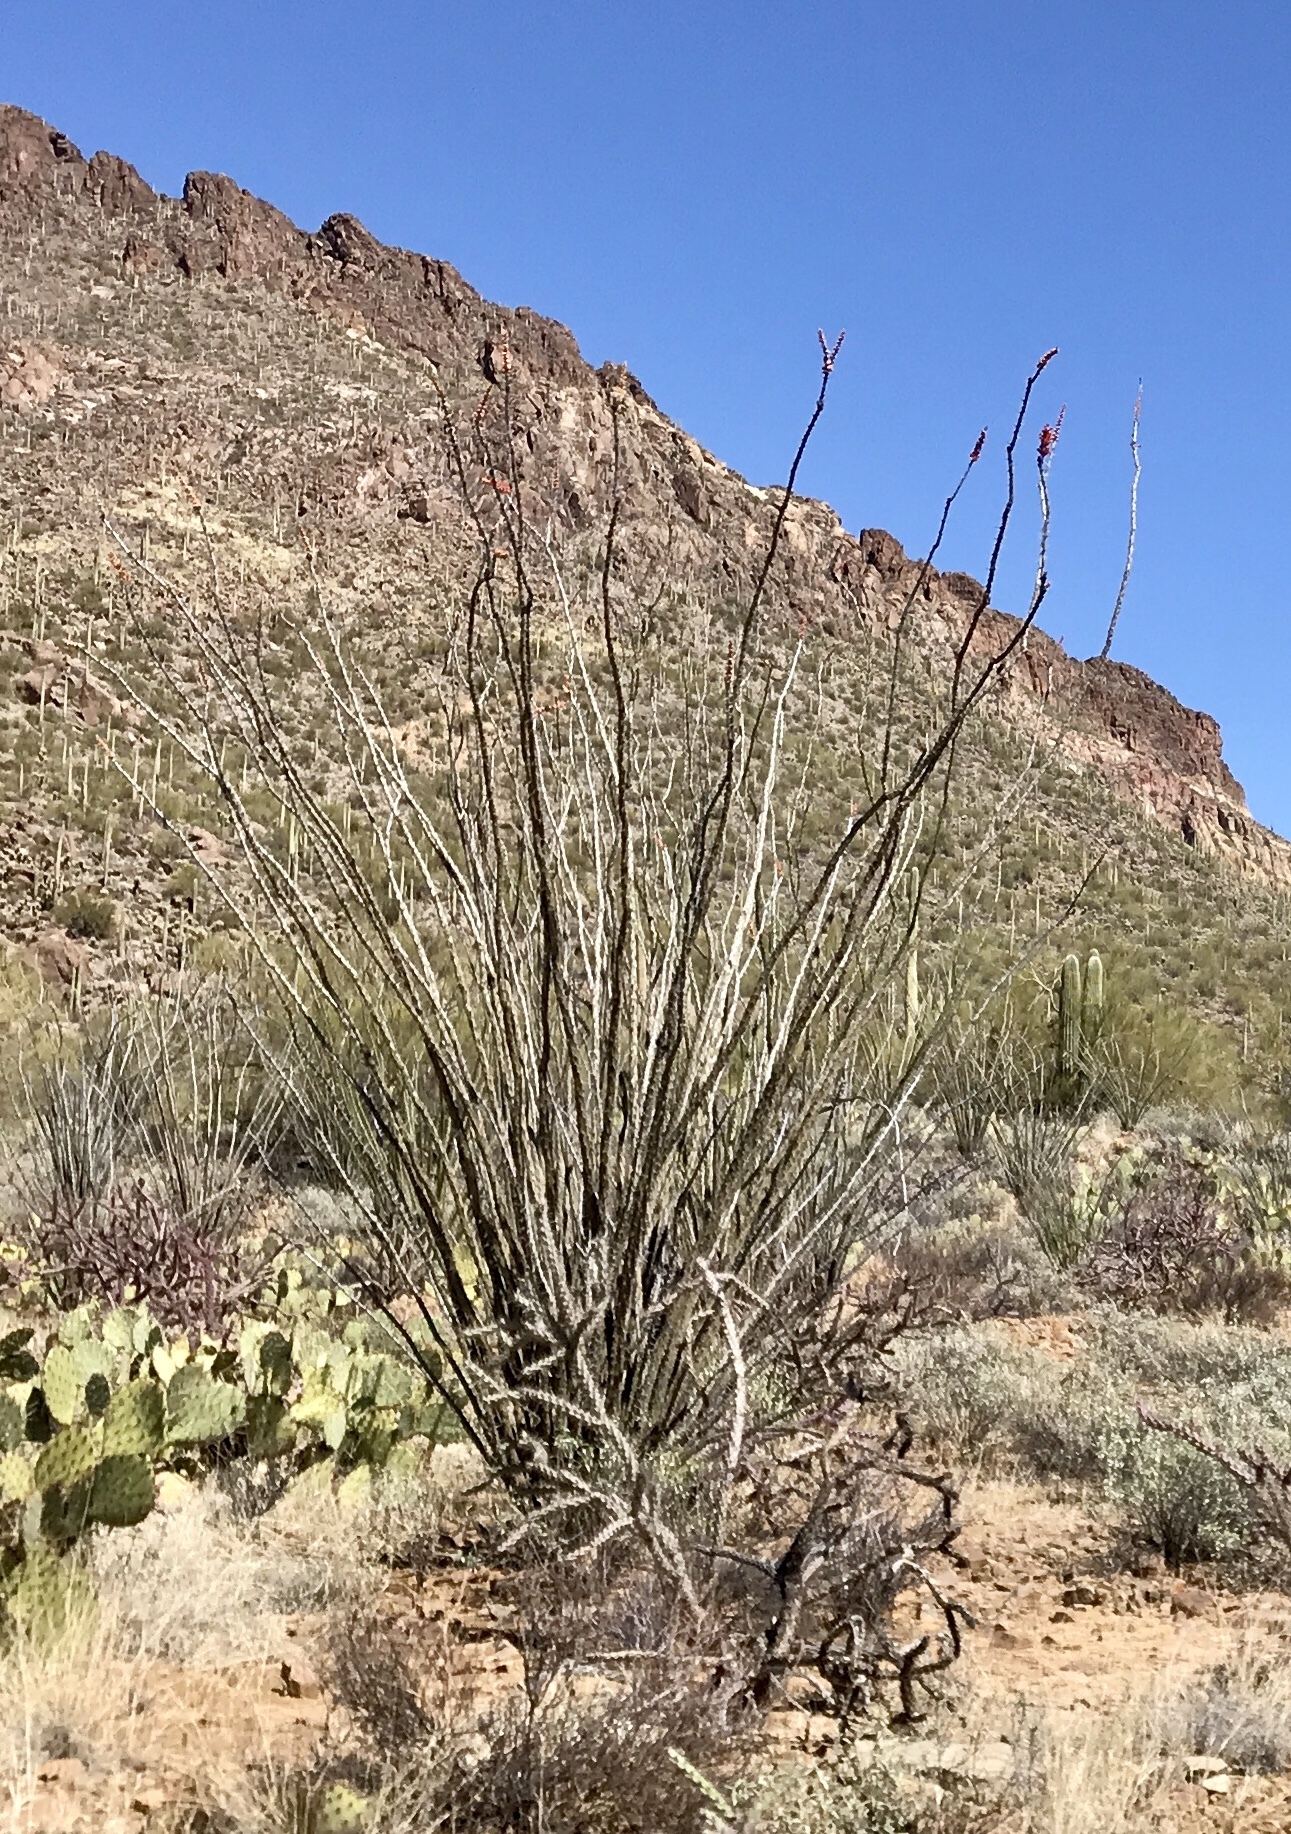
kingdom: Plantae
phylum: Tracheophyta
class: Magnoliopsida
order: Ericales
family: Fouquieriaceae
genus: Fouquieria
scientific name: Fouquieria splendens
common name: Vine-cactus
